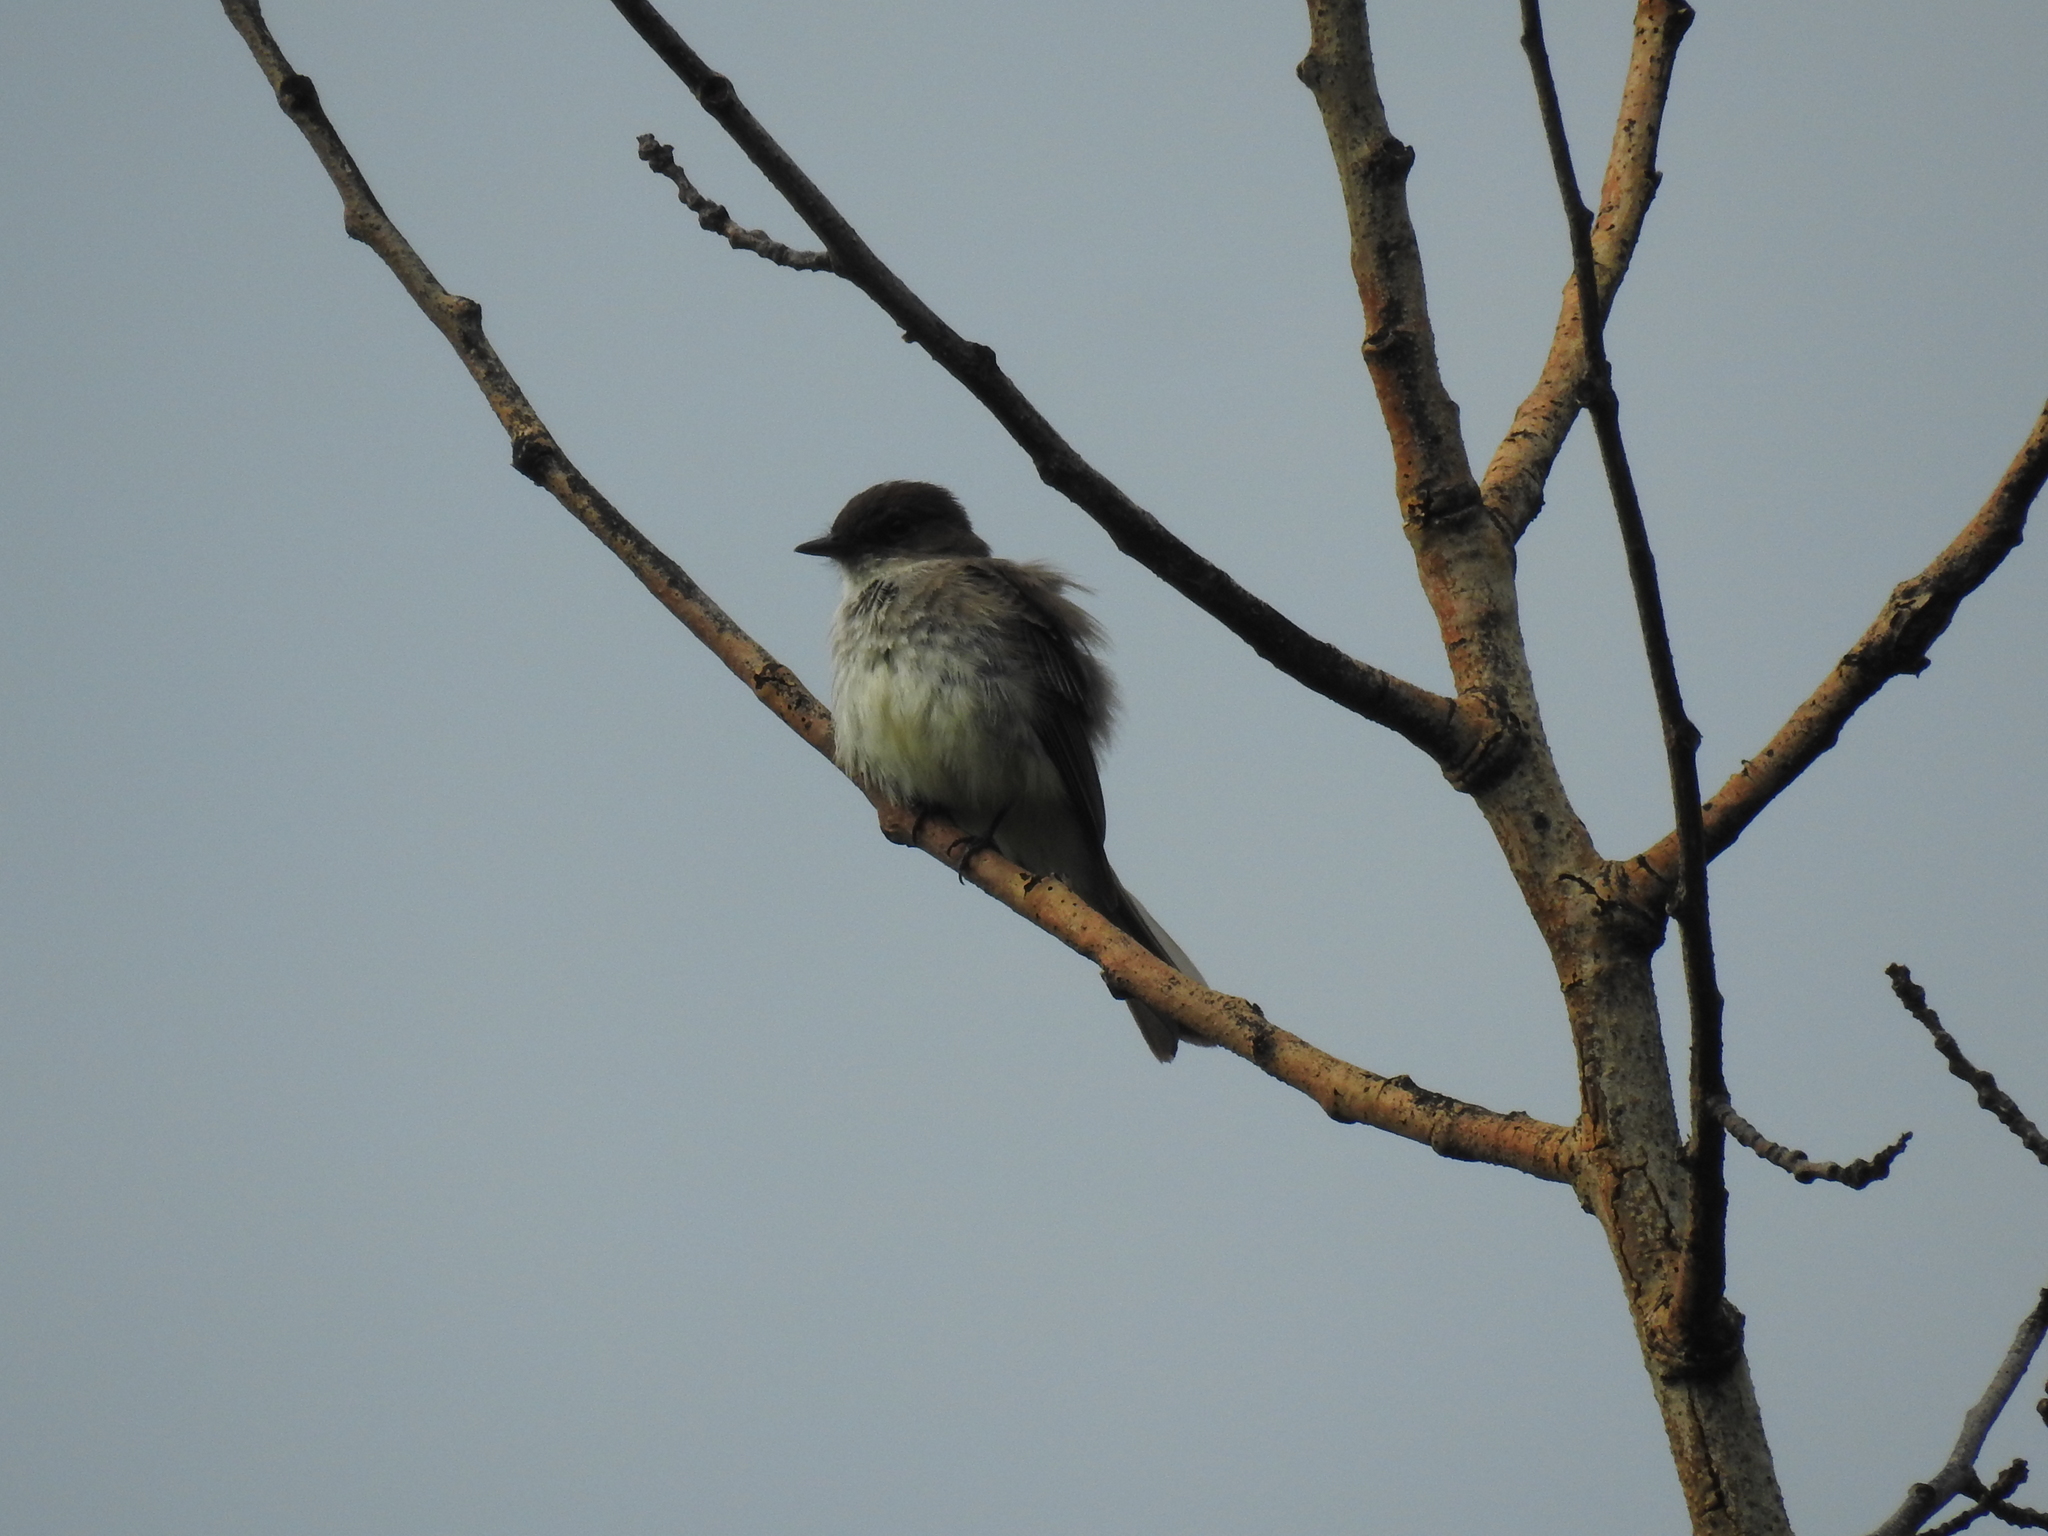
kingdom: Animalia
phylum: Chordata
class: Aves
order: Passeriformes
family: Tyrannidae
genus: Sayornis
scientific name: Sayornis phoebe
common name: Eastern phoebe
